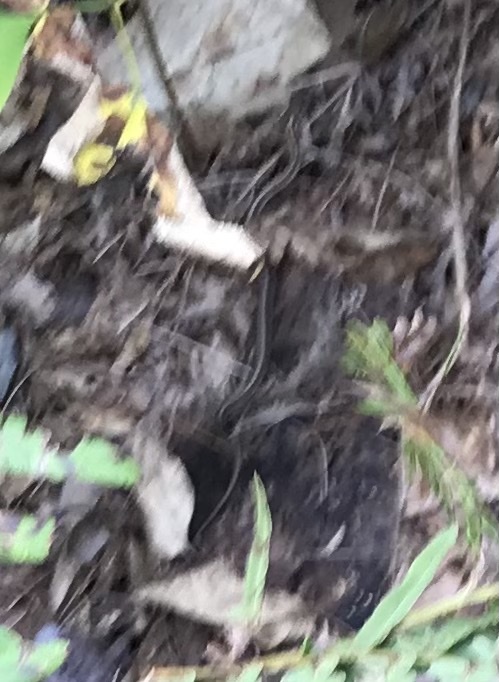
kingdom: Animalia
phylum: Chordata
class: Squamata
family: Colubridae
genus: Thamnophis
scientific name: Thamnophis sirtalis
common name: Common garter snake
